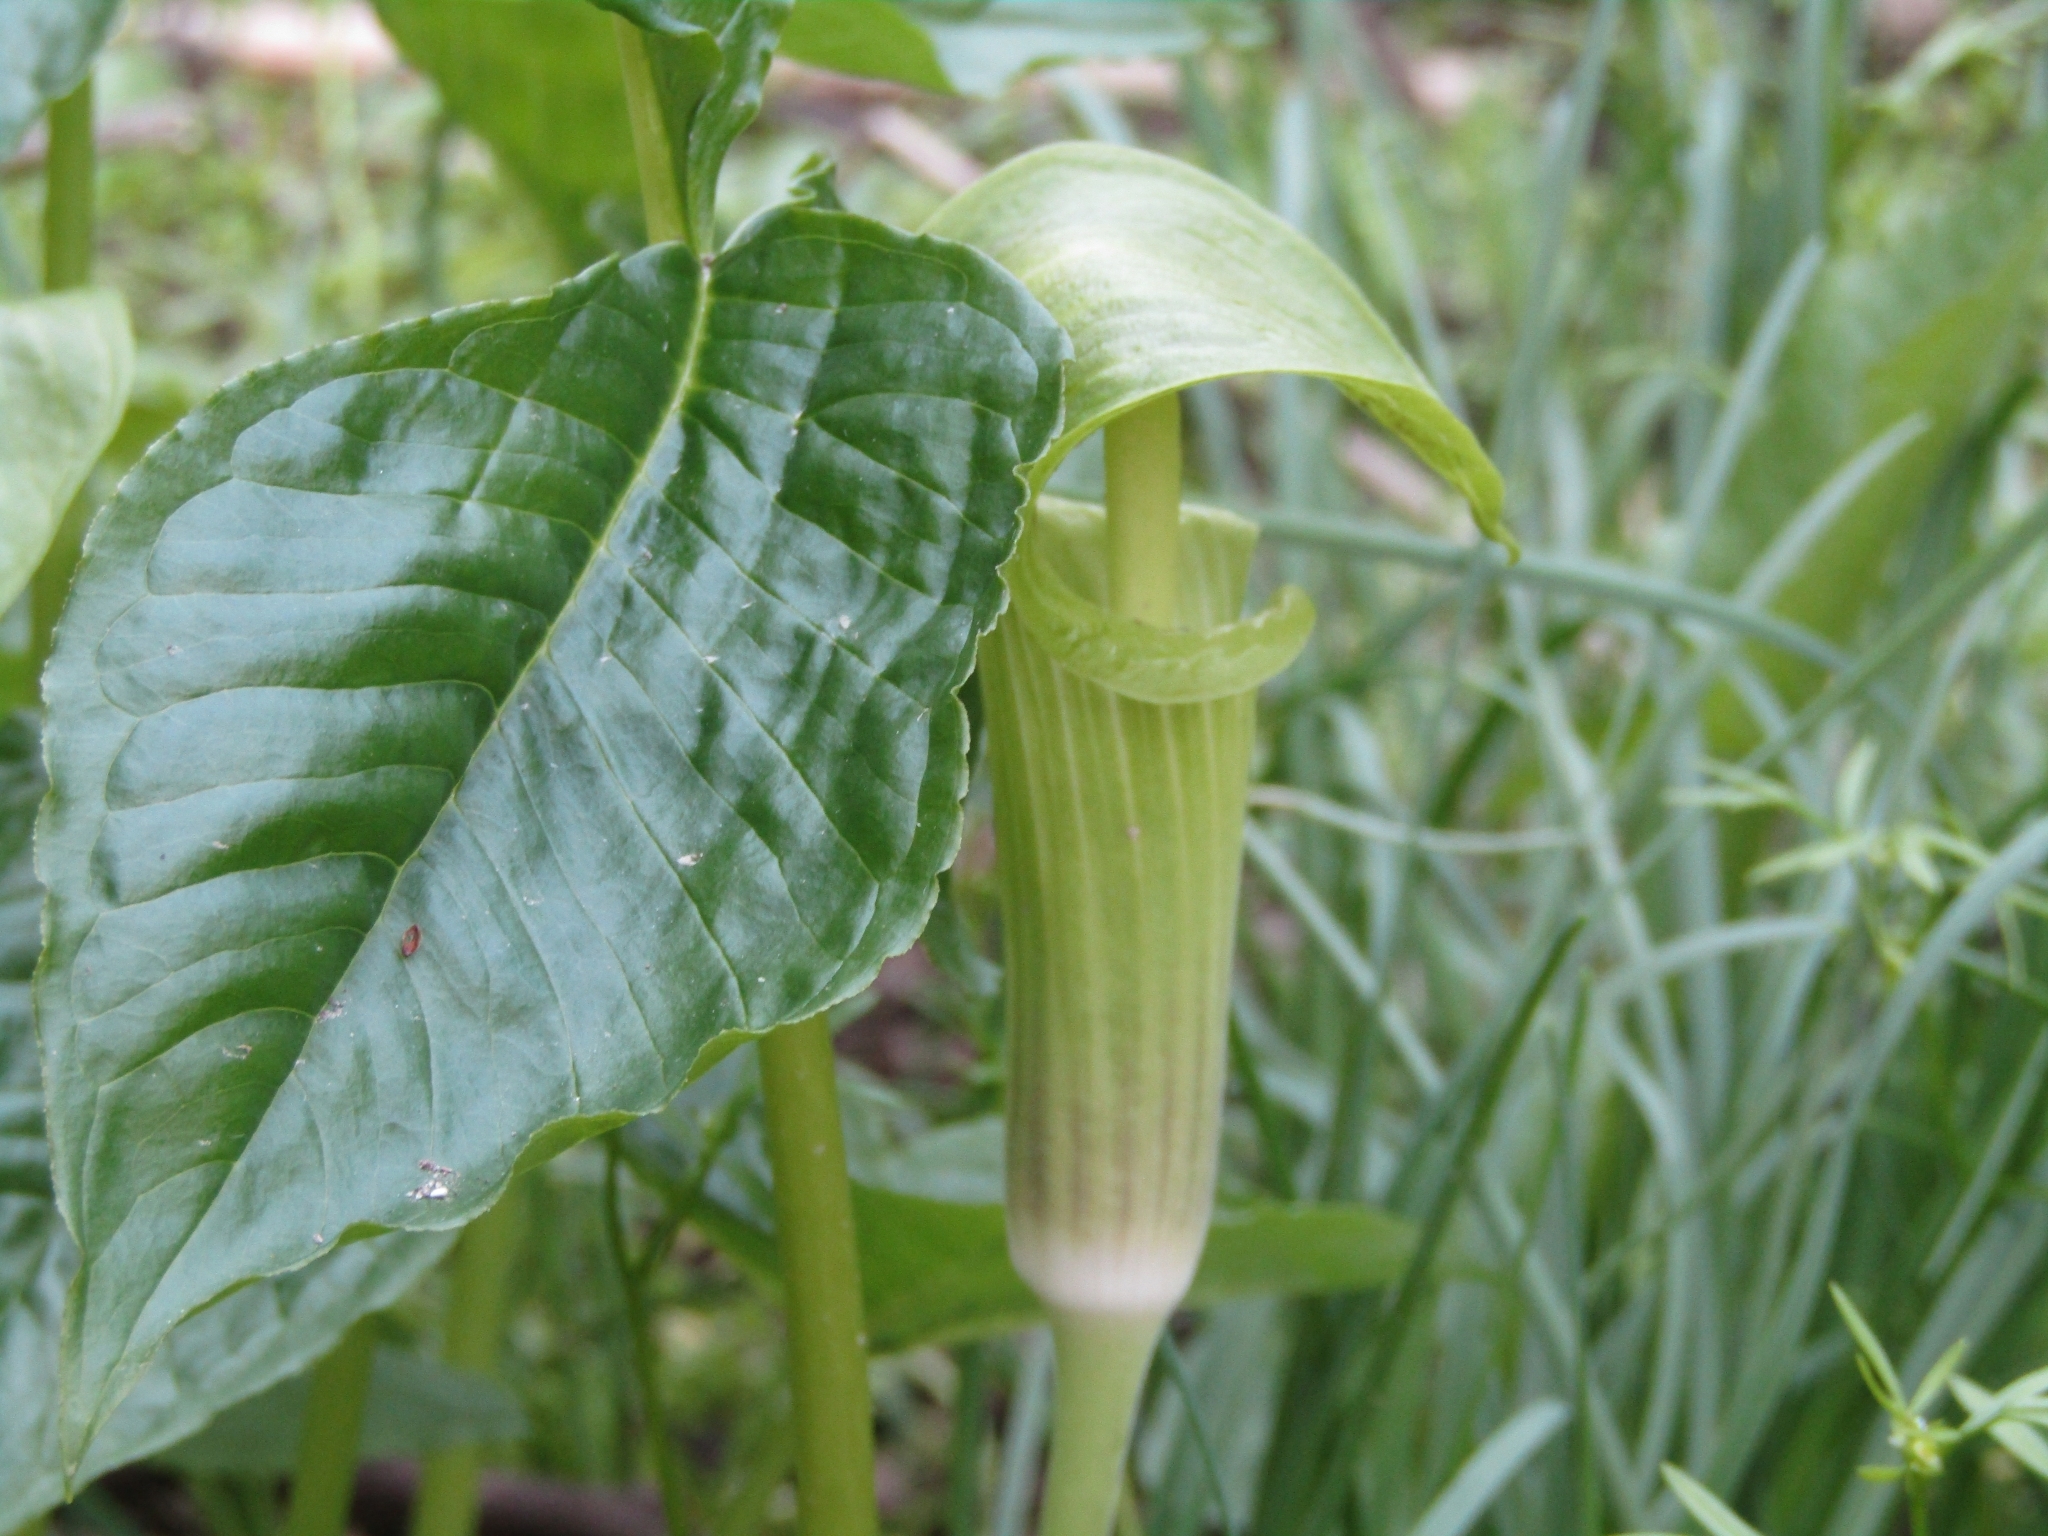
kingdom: Plantae
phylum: Tracheophyta
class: Liliopsida
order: Alismatales
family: Araceae
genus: Arisaema
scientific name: Arisaema triphyllum
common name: Jack-in-the-pulpit
